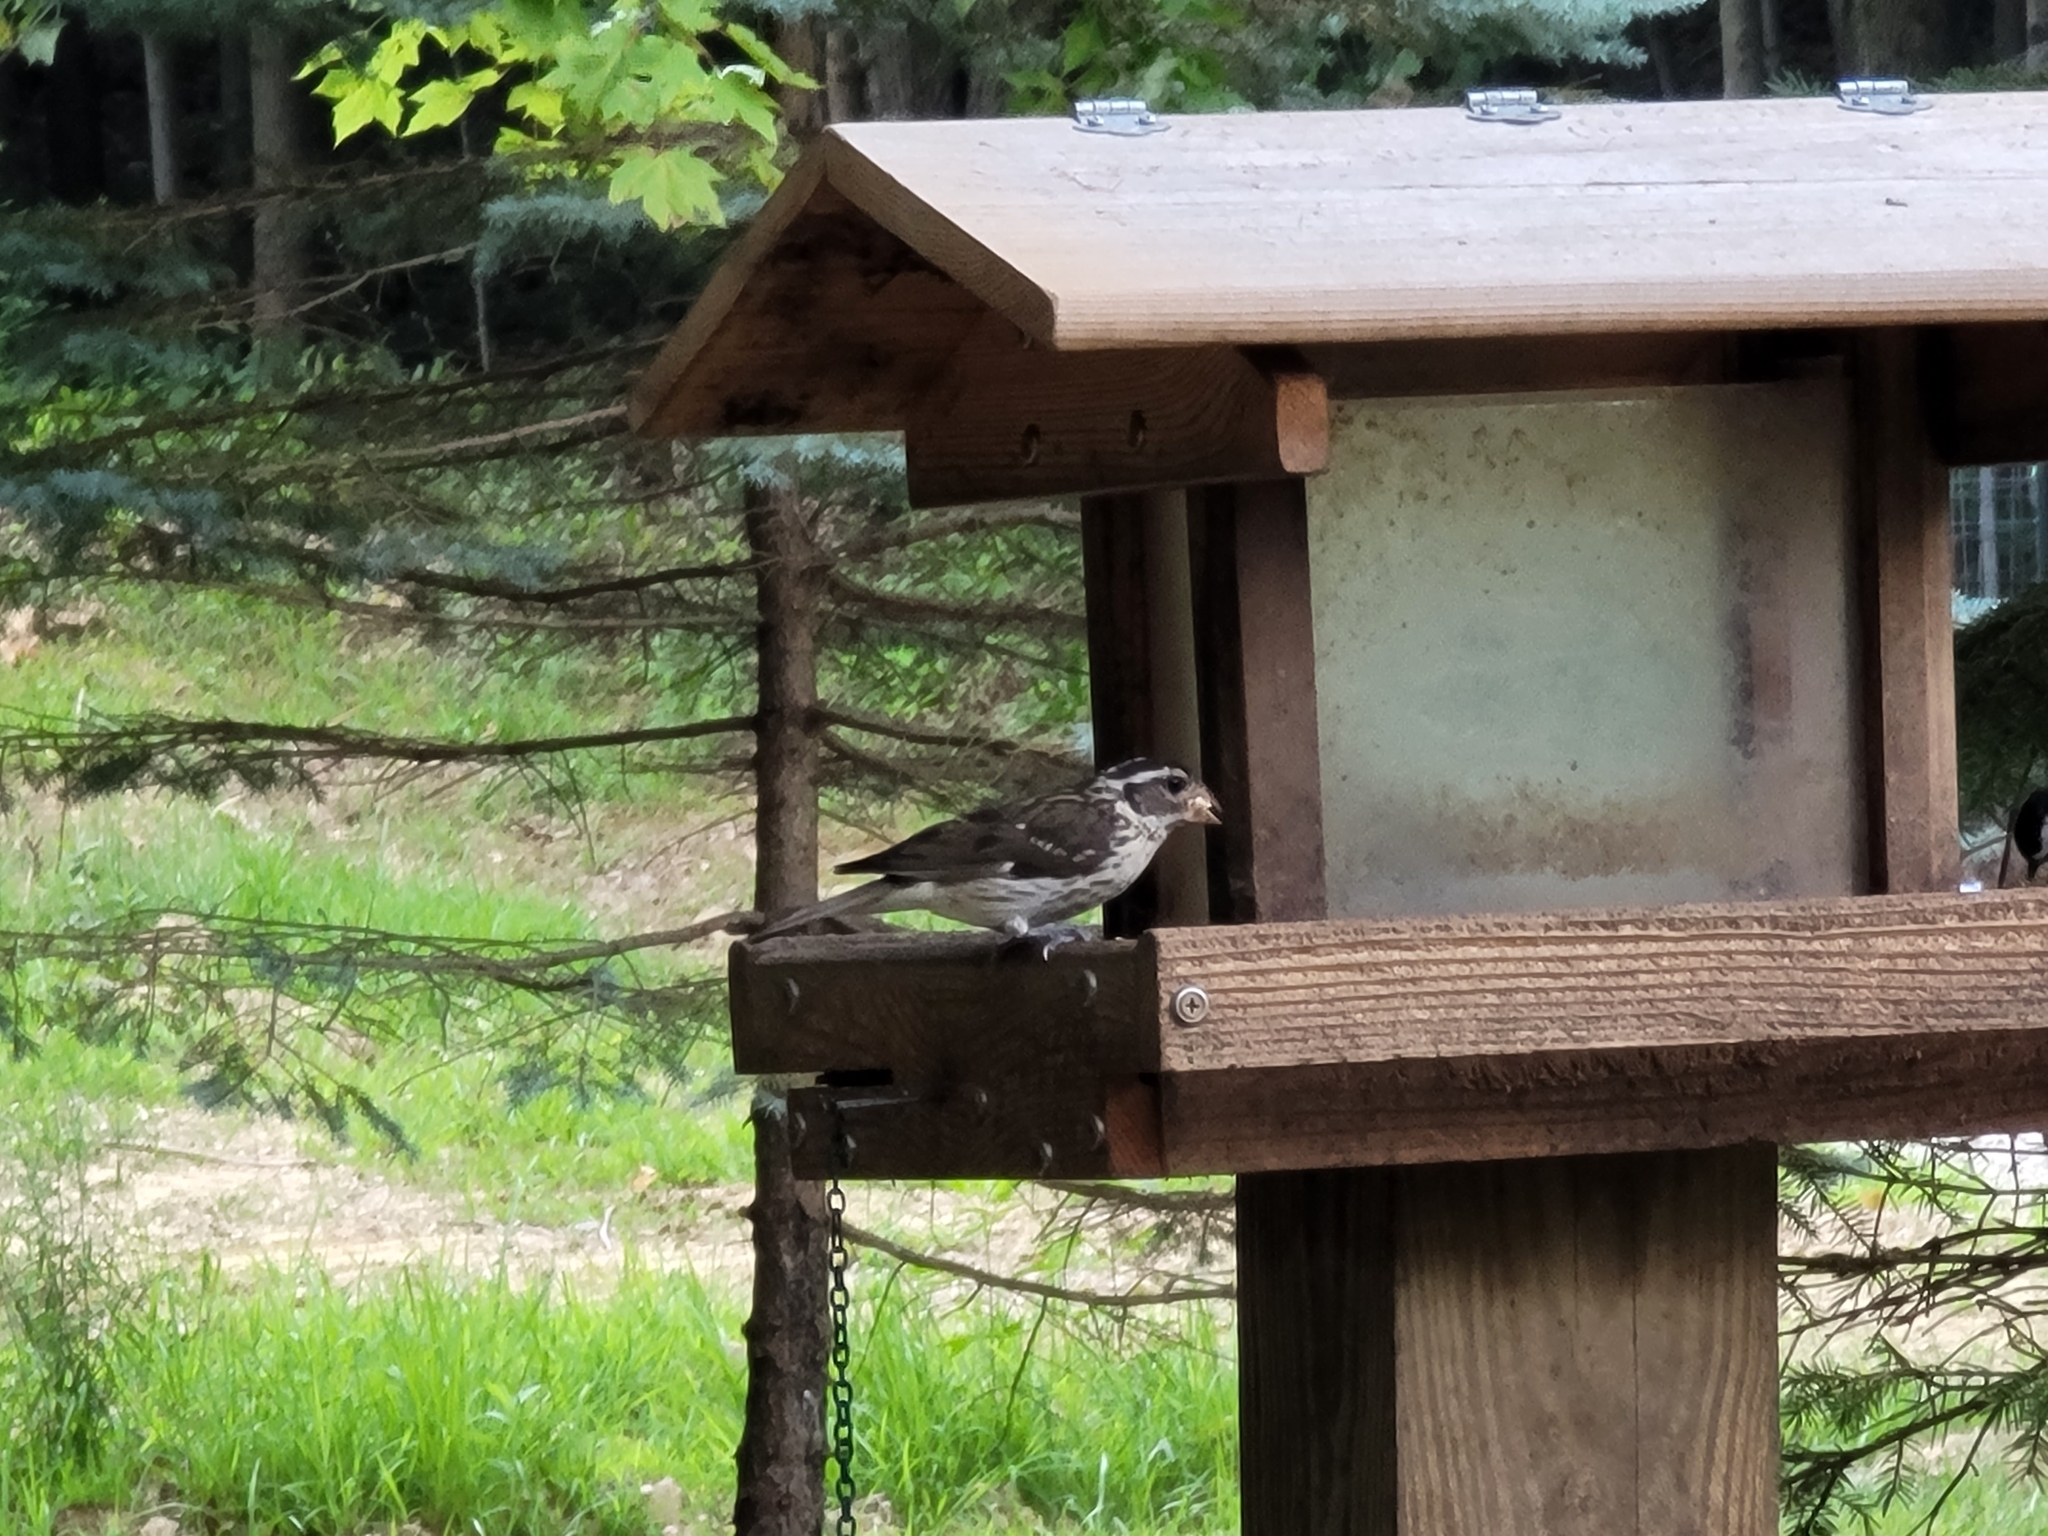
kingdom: Animalia
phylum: Chordata
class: Aves
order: Passeriformes
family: Cardinalidae
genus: Pheucticus
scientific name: Pheucticus ludovicianus
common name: Rose-breasted grosbeak
